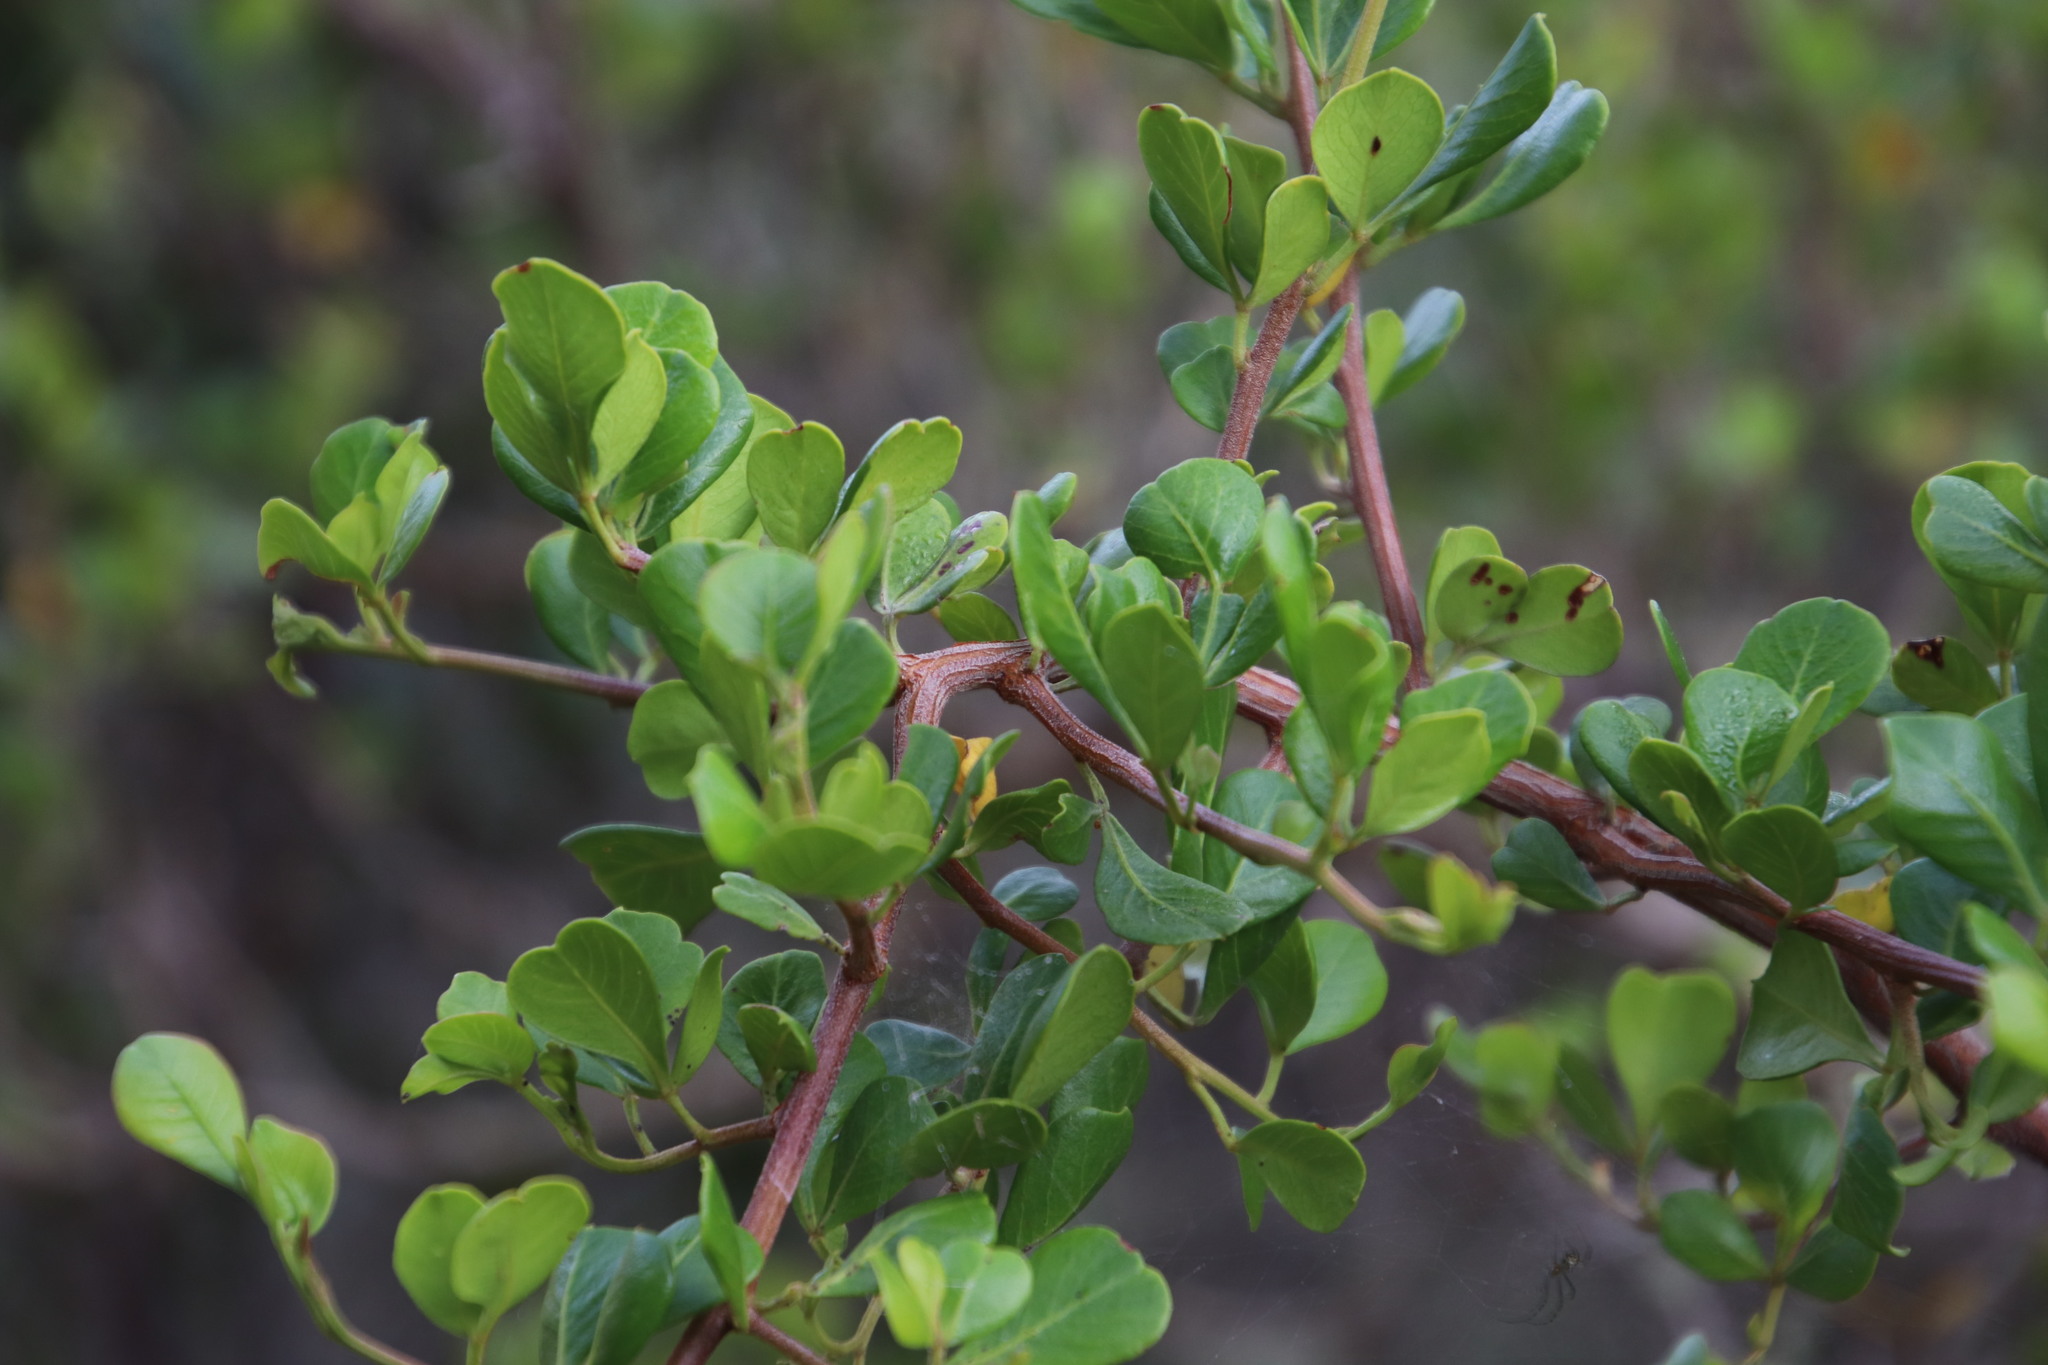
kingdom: Plantae
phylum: Tracheophyta
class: Magnoliopsida
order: Sapindales
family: Anacardiaceae
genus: Searsia
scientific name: Searsia glauca
